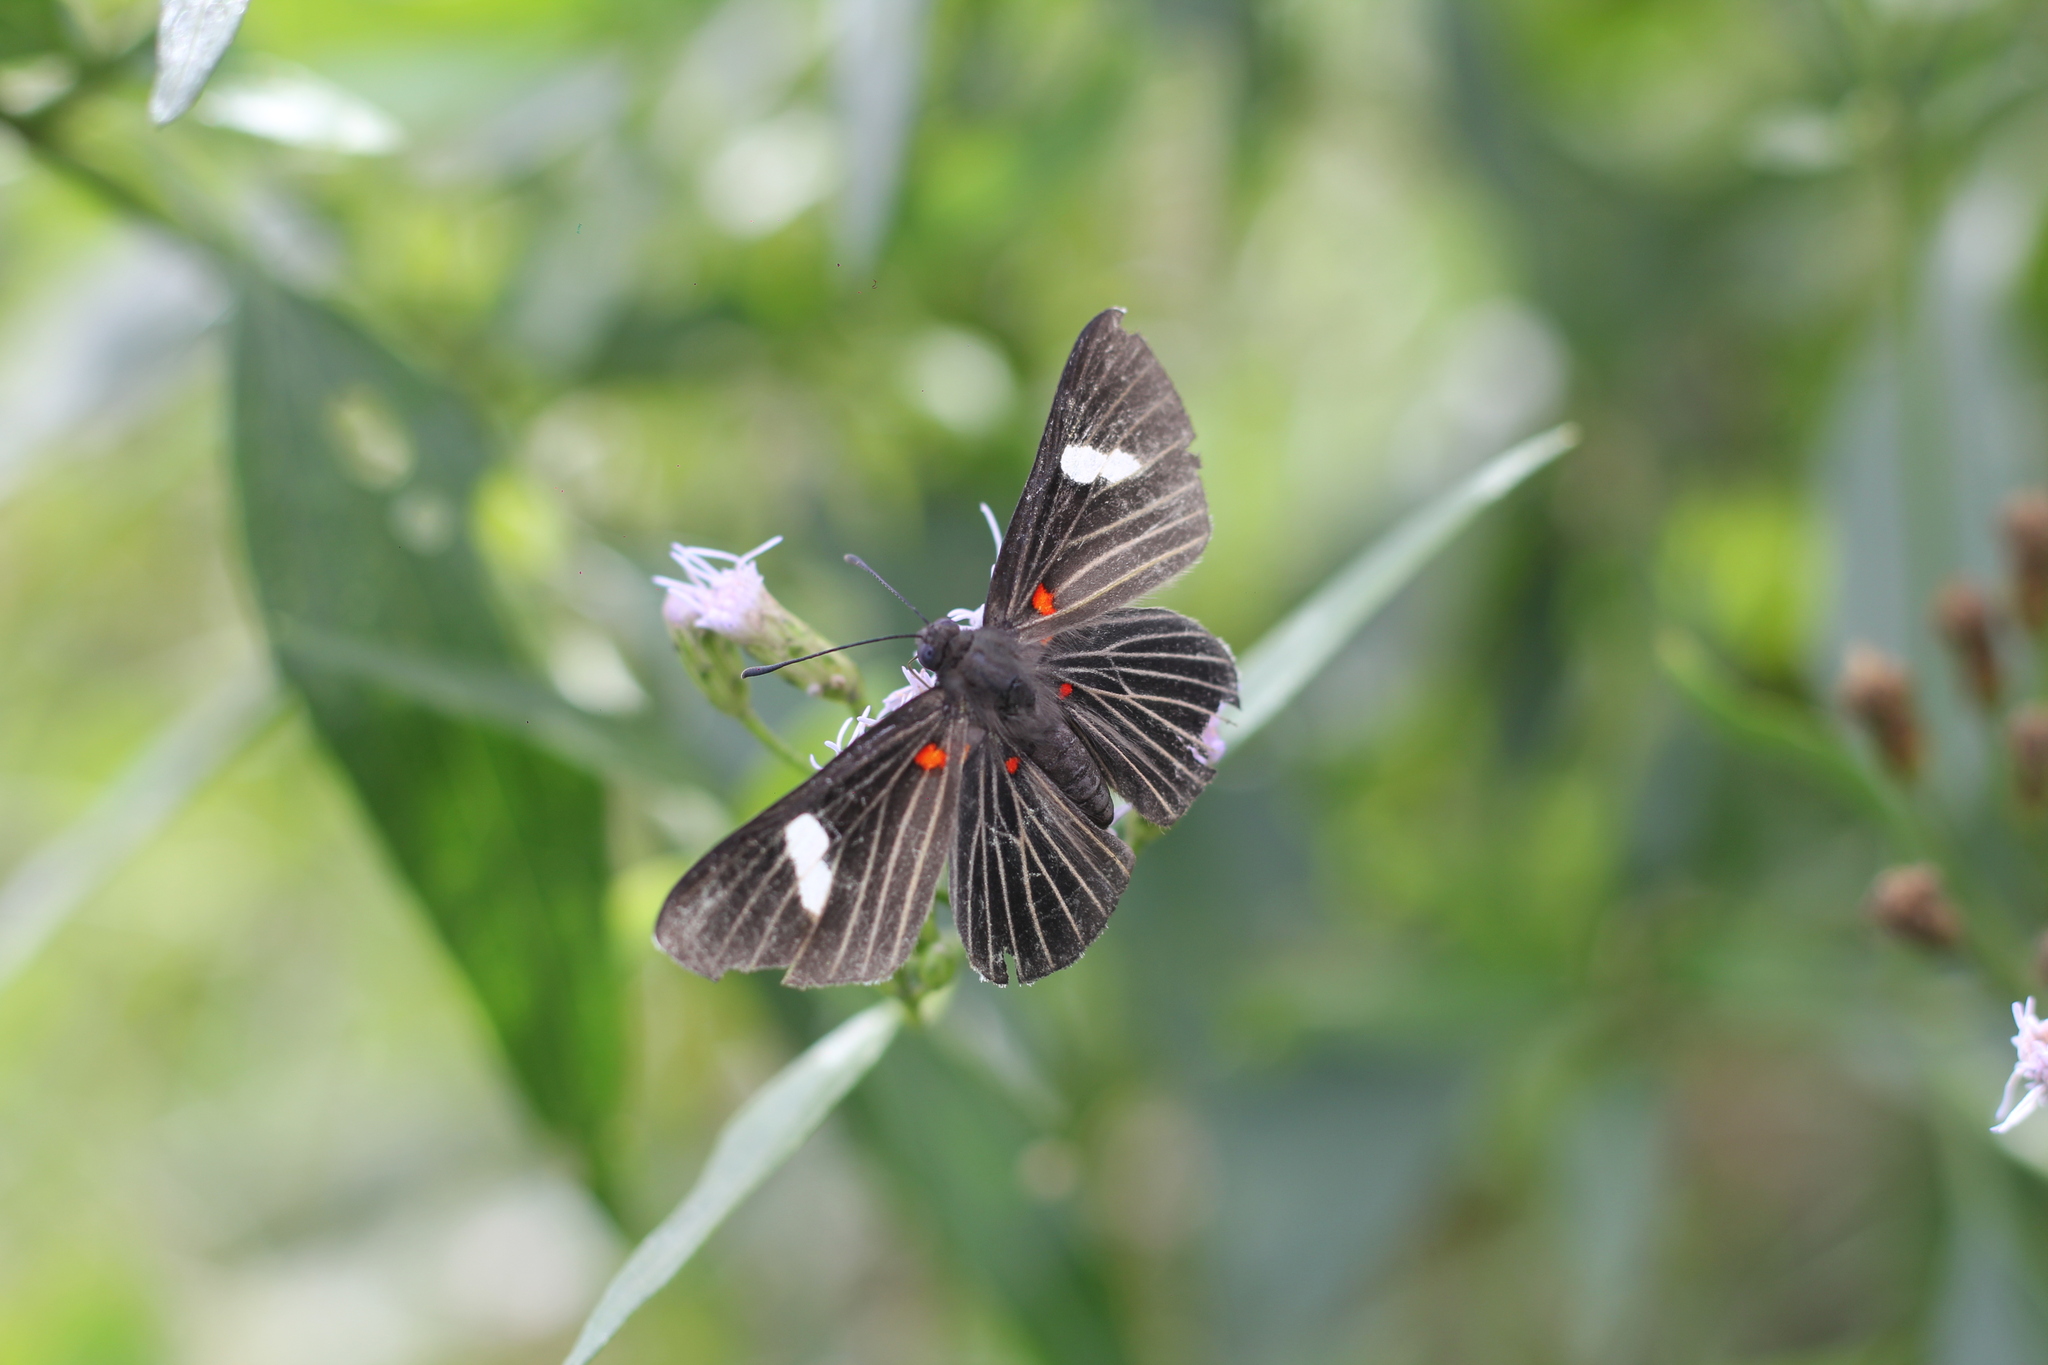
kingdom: Animalia
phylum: Arthropoda
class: Insecta
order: Lepidoptera
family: Lycaenidae
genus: Melanis
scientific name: Melanis aegates
